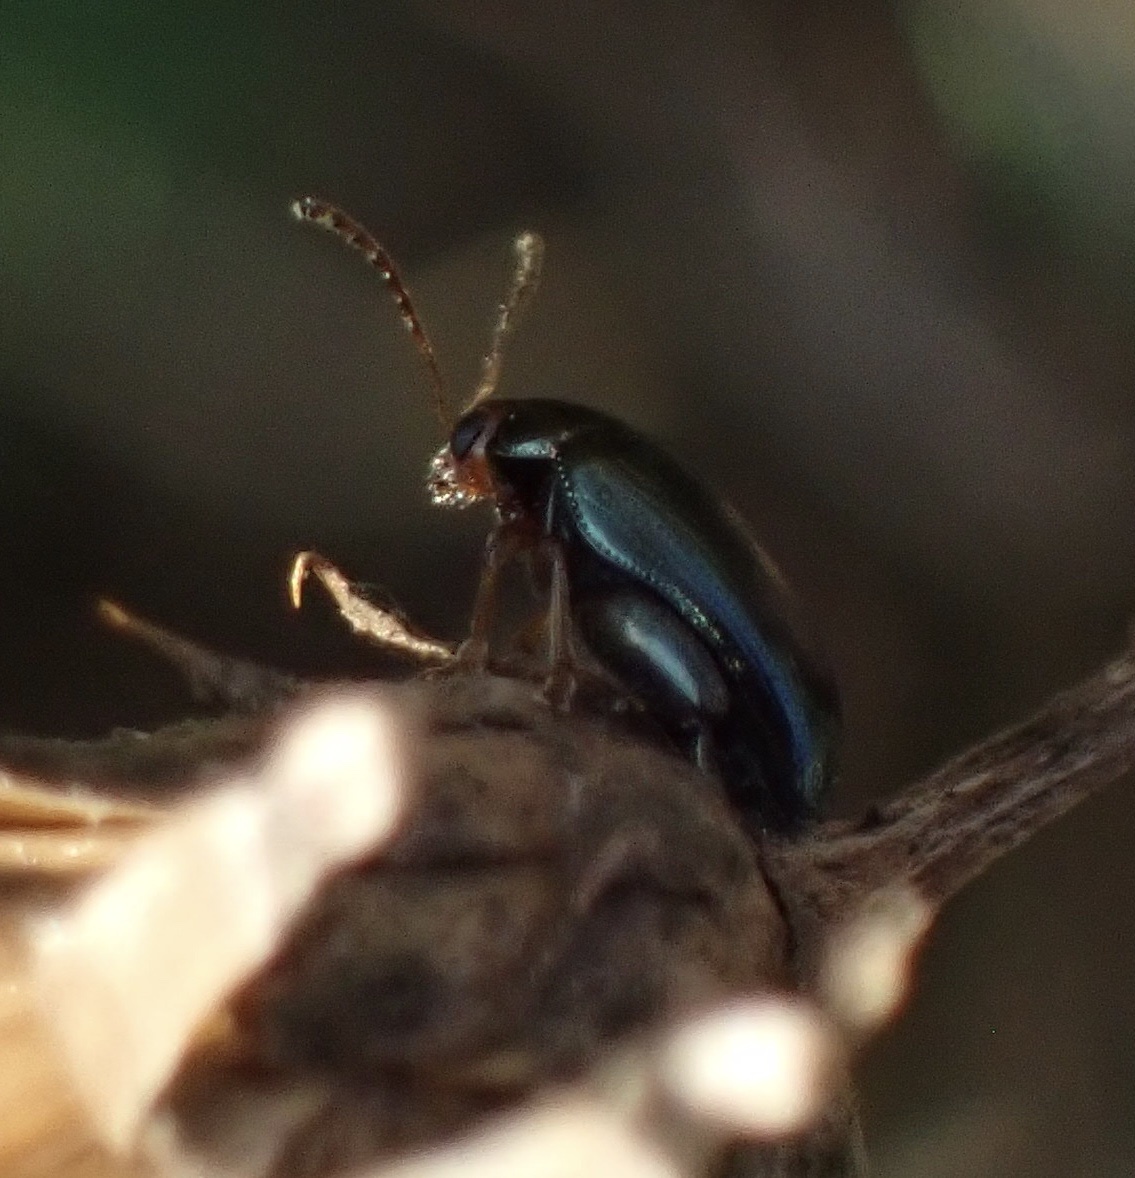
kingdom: Animalia
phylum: Arthropoda
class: Insecta
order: Coleoptera
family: Chrysomelidae
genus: Psylliodes
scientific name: Psylliodes chrysocephalus
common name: Cabbage-stem flea beetle
